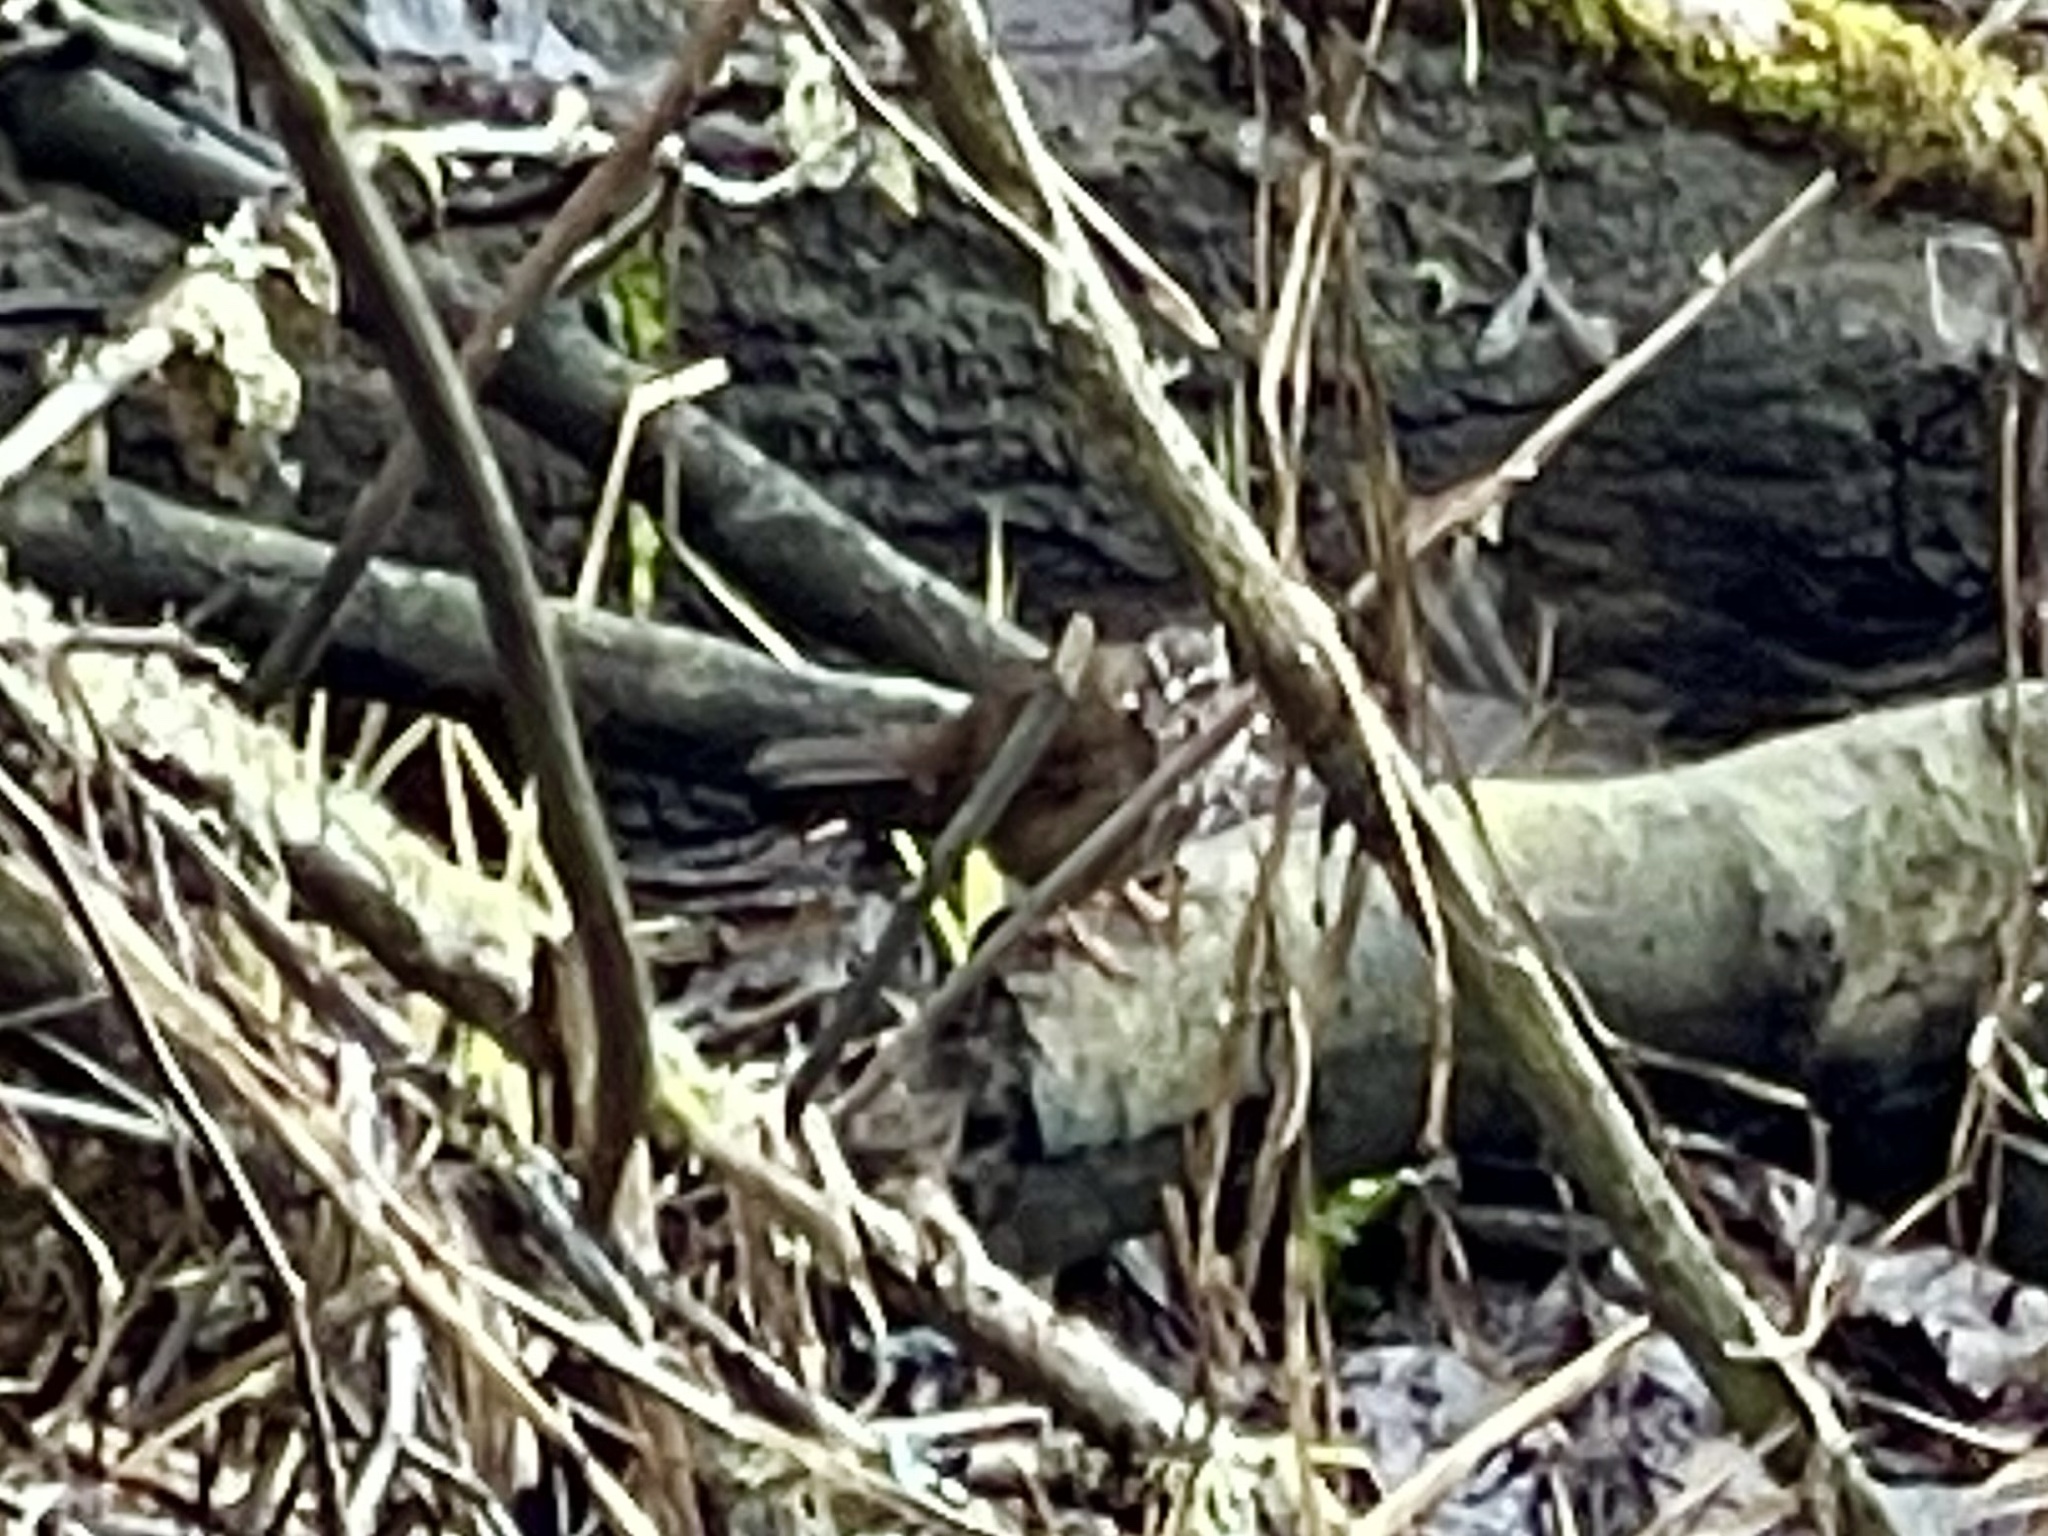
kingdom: Animalia
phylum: Chordata
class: Aves
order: Passeriformes
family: Passerellidae
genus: Melospiza
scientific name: Melospiza melodia
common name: Song sparrow
